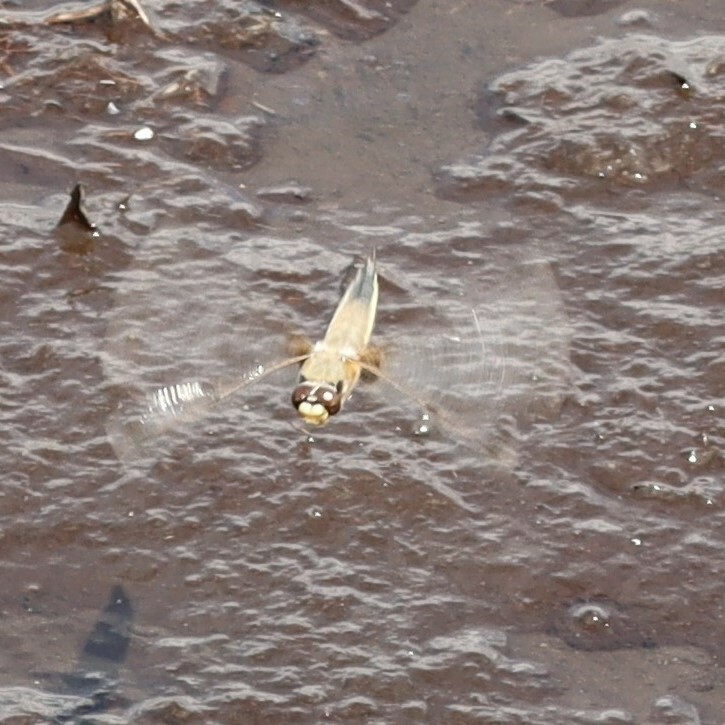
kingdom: Animalia
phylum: Arthropoda
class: Insecta
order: Odonata
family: Libellulidae
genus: Libellula
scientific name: Libellula quadrimaculata
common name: Four-spotted chaser
